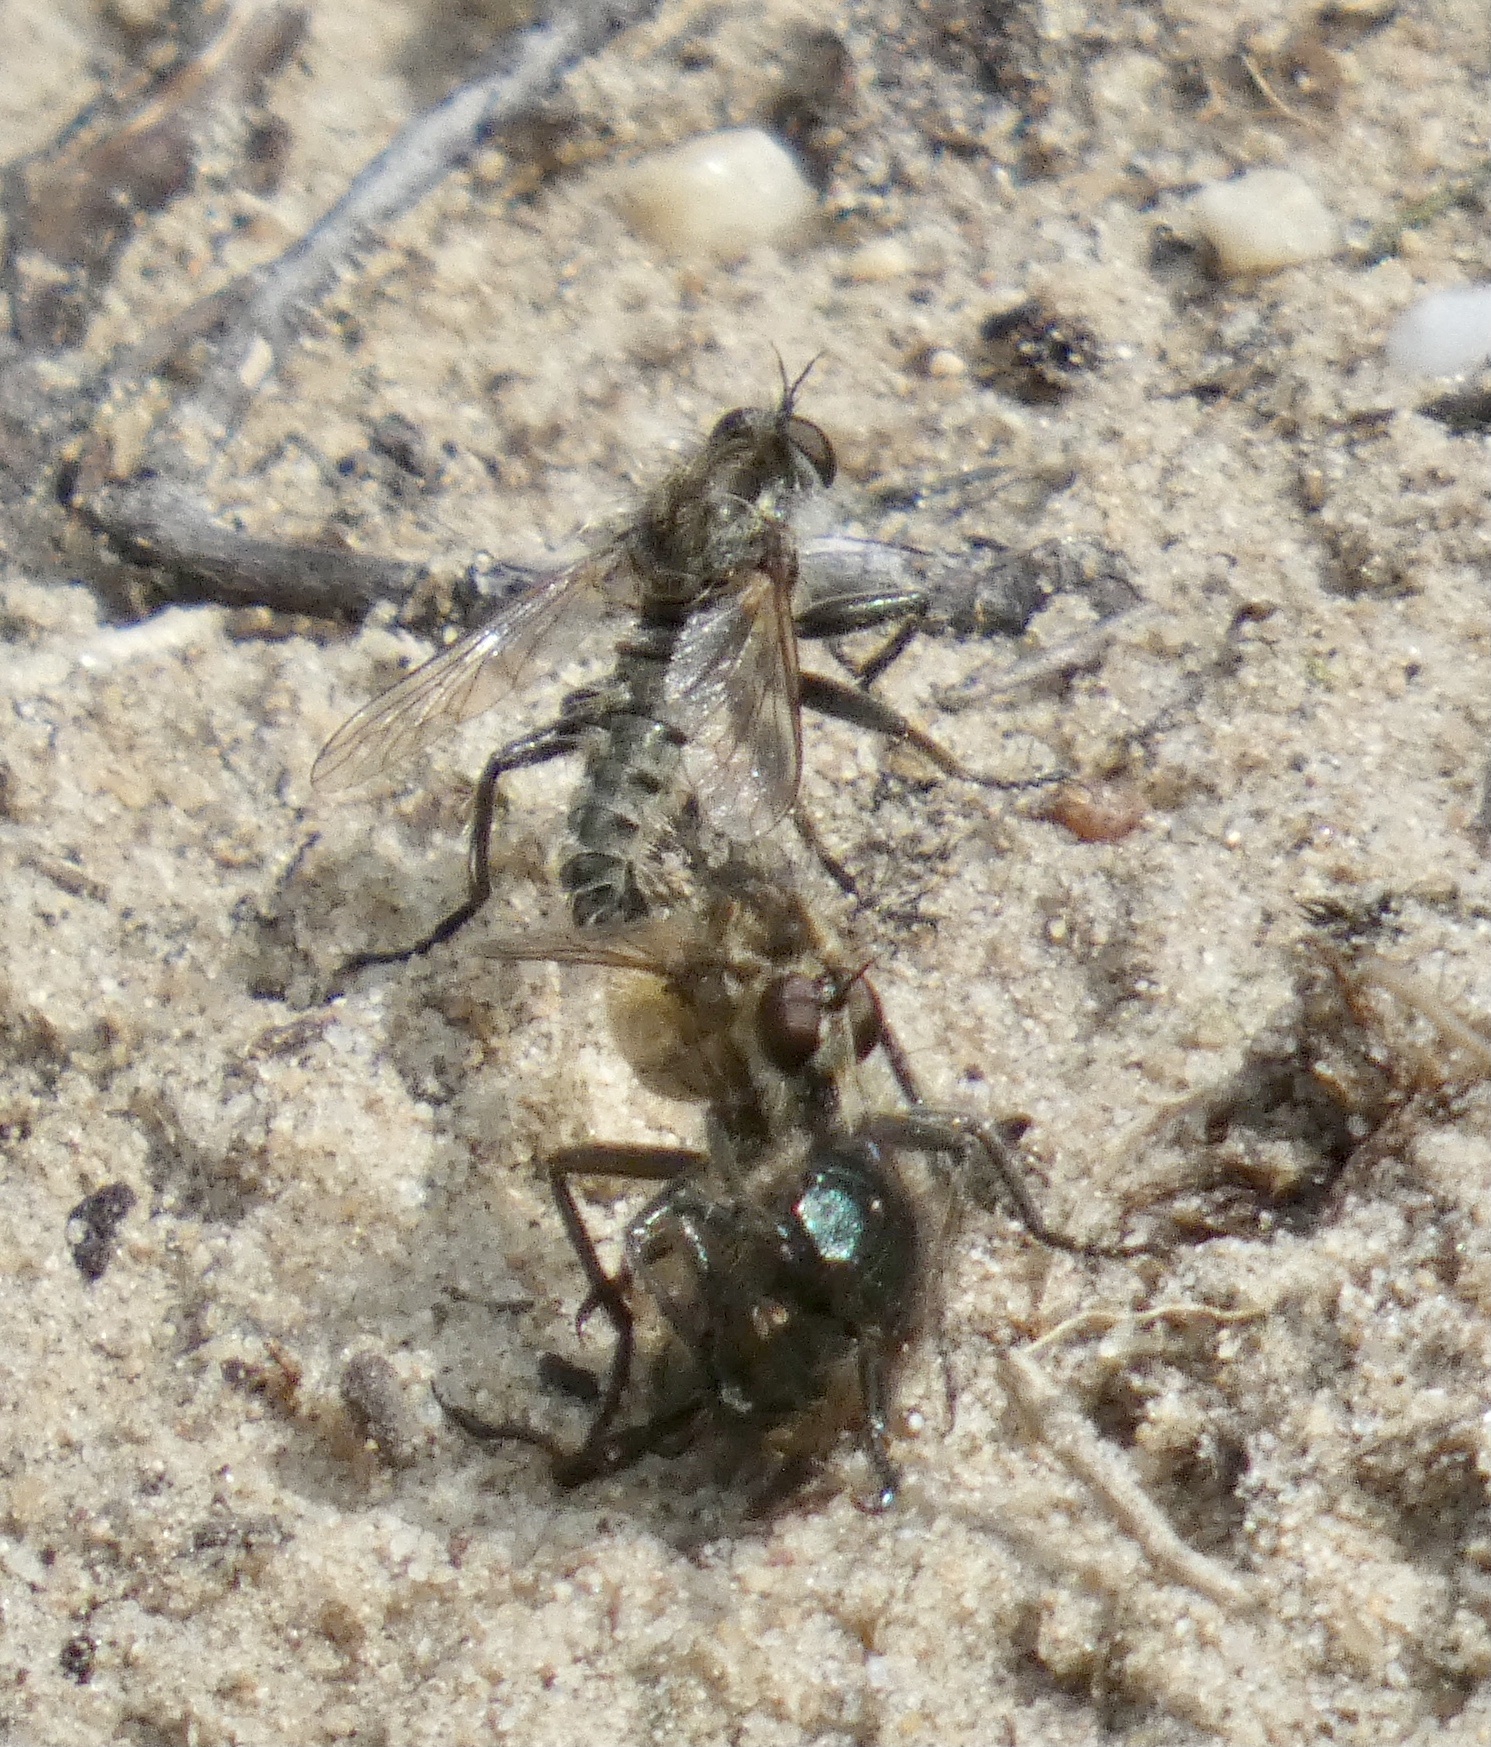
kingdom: Animalia
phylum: Arthropoda
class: Insecta
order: Diptera
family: Asilidae
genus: Dysmachus
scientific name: Dysmachus trigonus
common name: Fan-bristled robberfly
